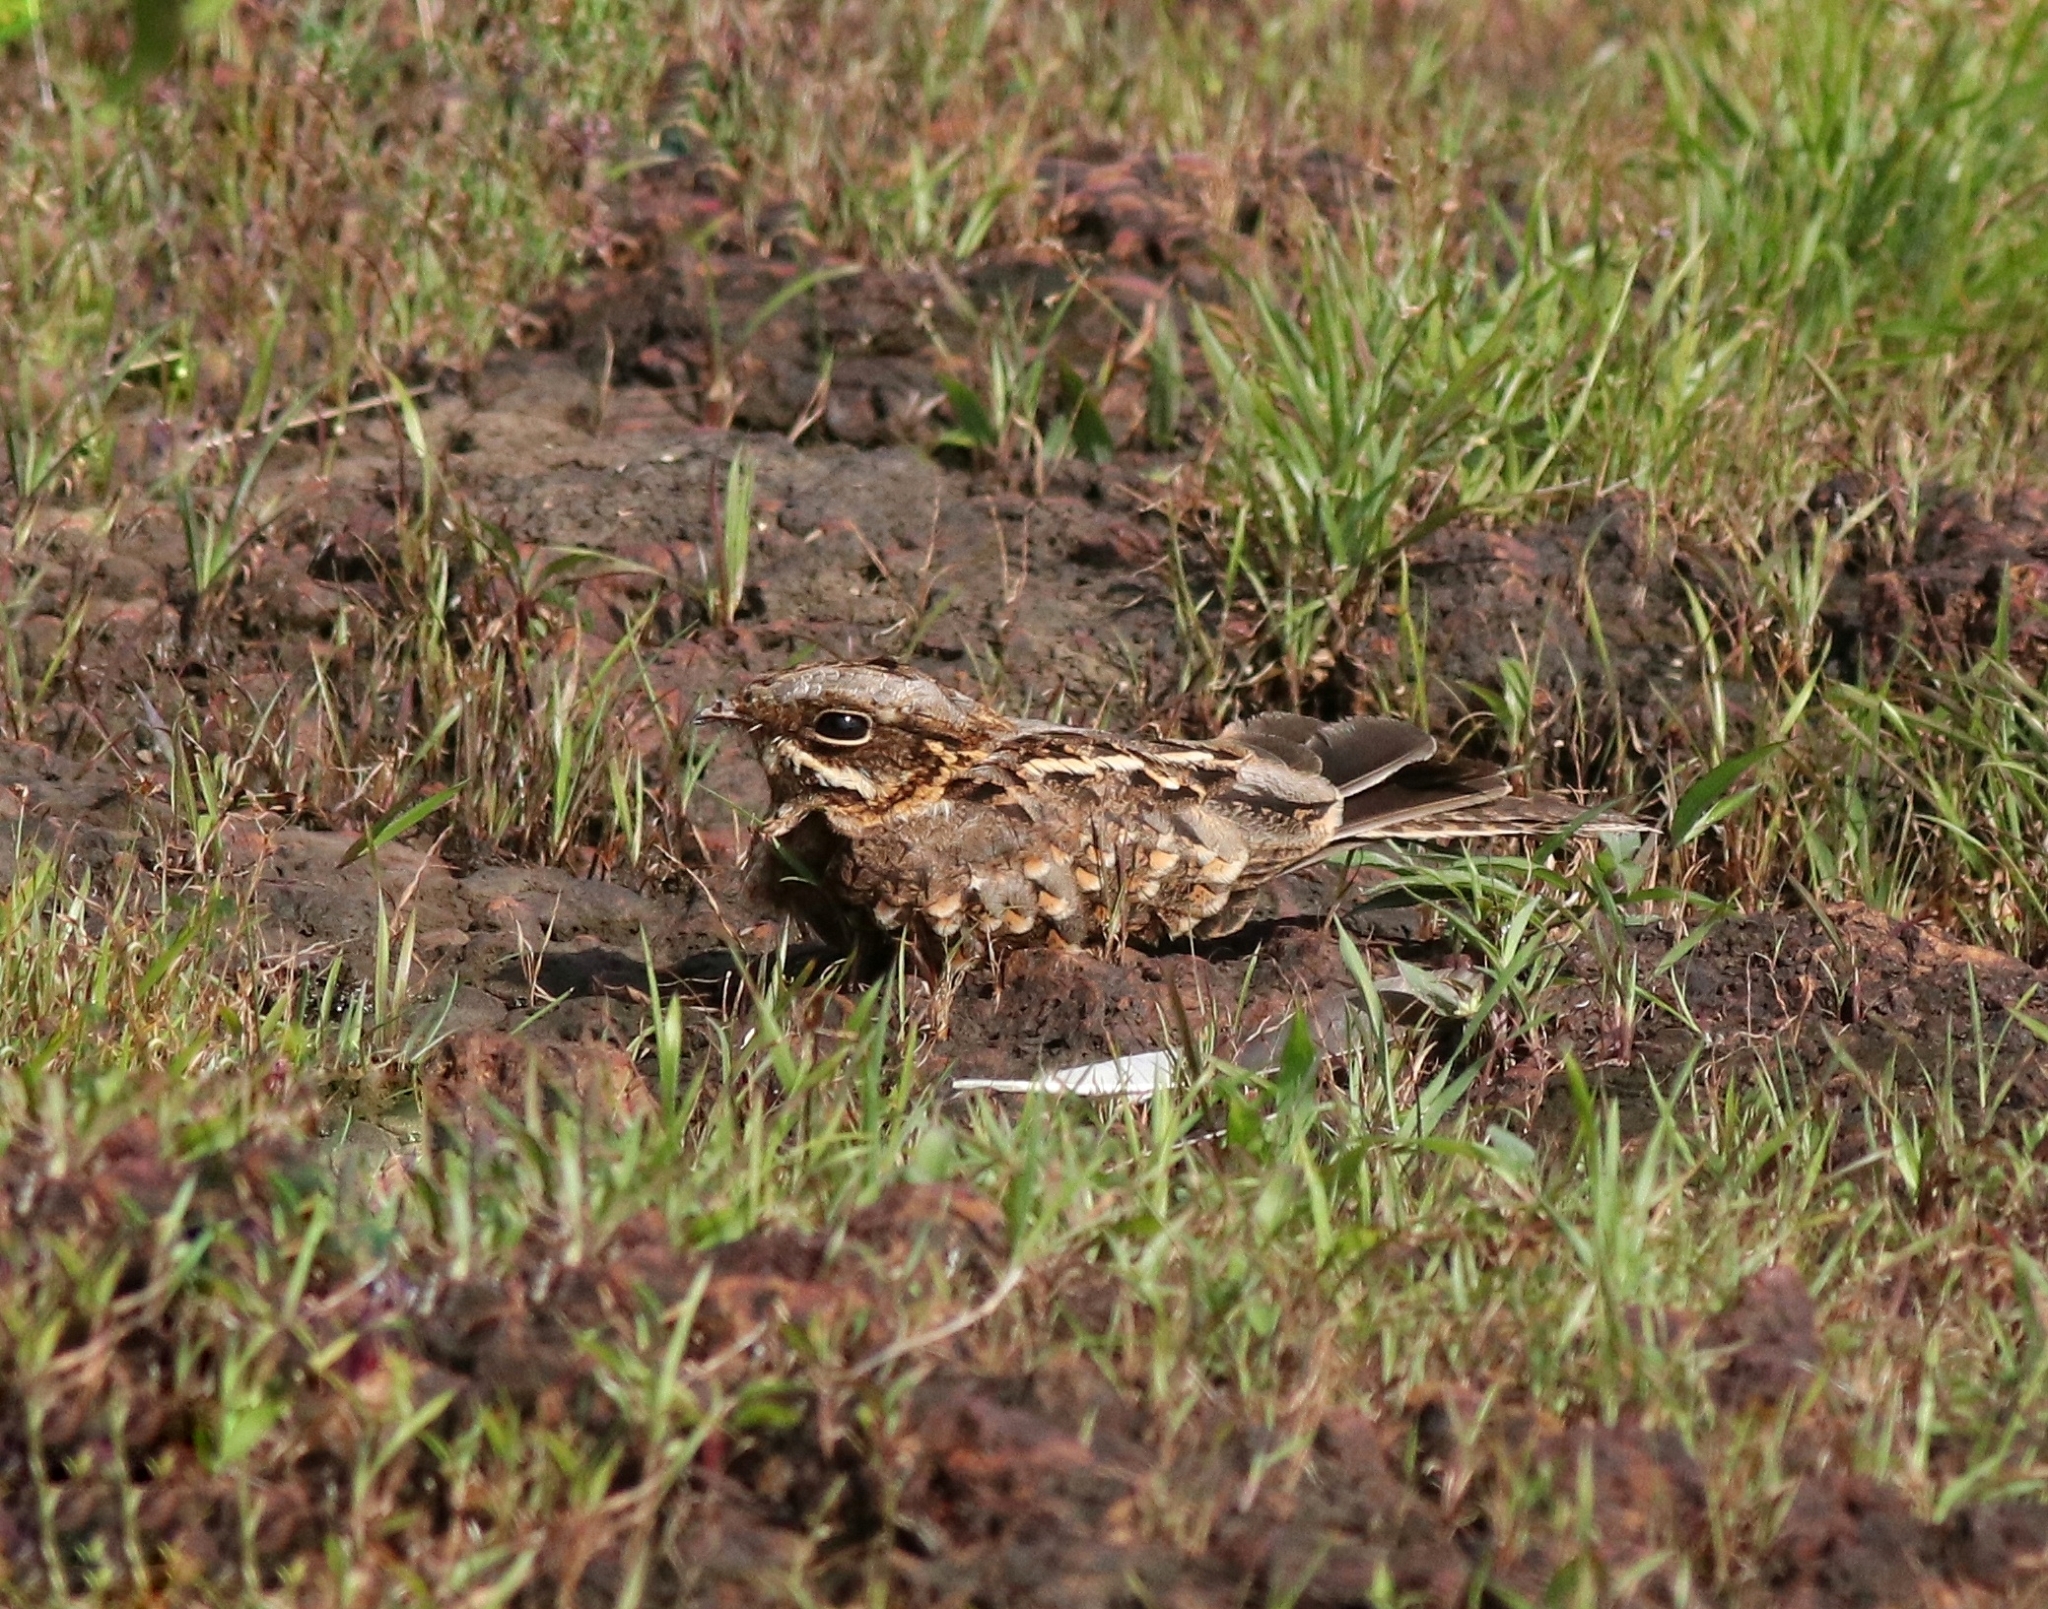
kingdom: Animalia
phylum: Chordata
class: Aves
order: Caprimulgiformes
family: Caprimulgidae
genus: Caprimulgus
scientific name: Caprimulgus asiaticus
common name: Indian nightjar
